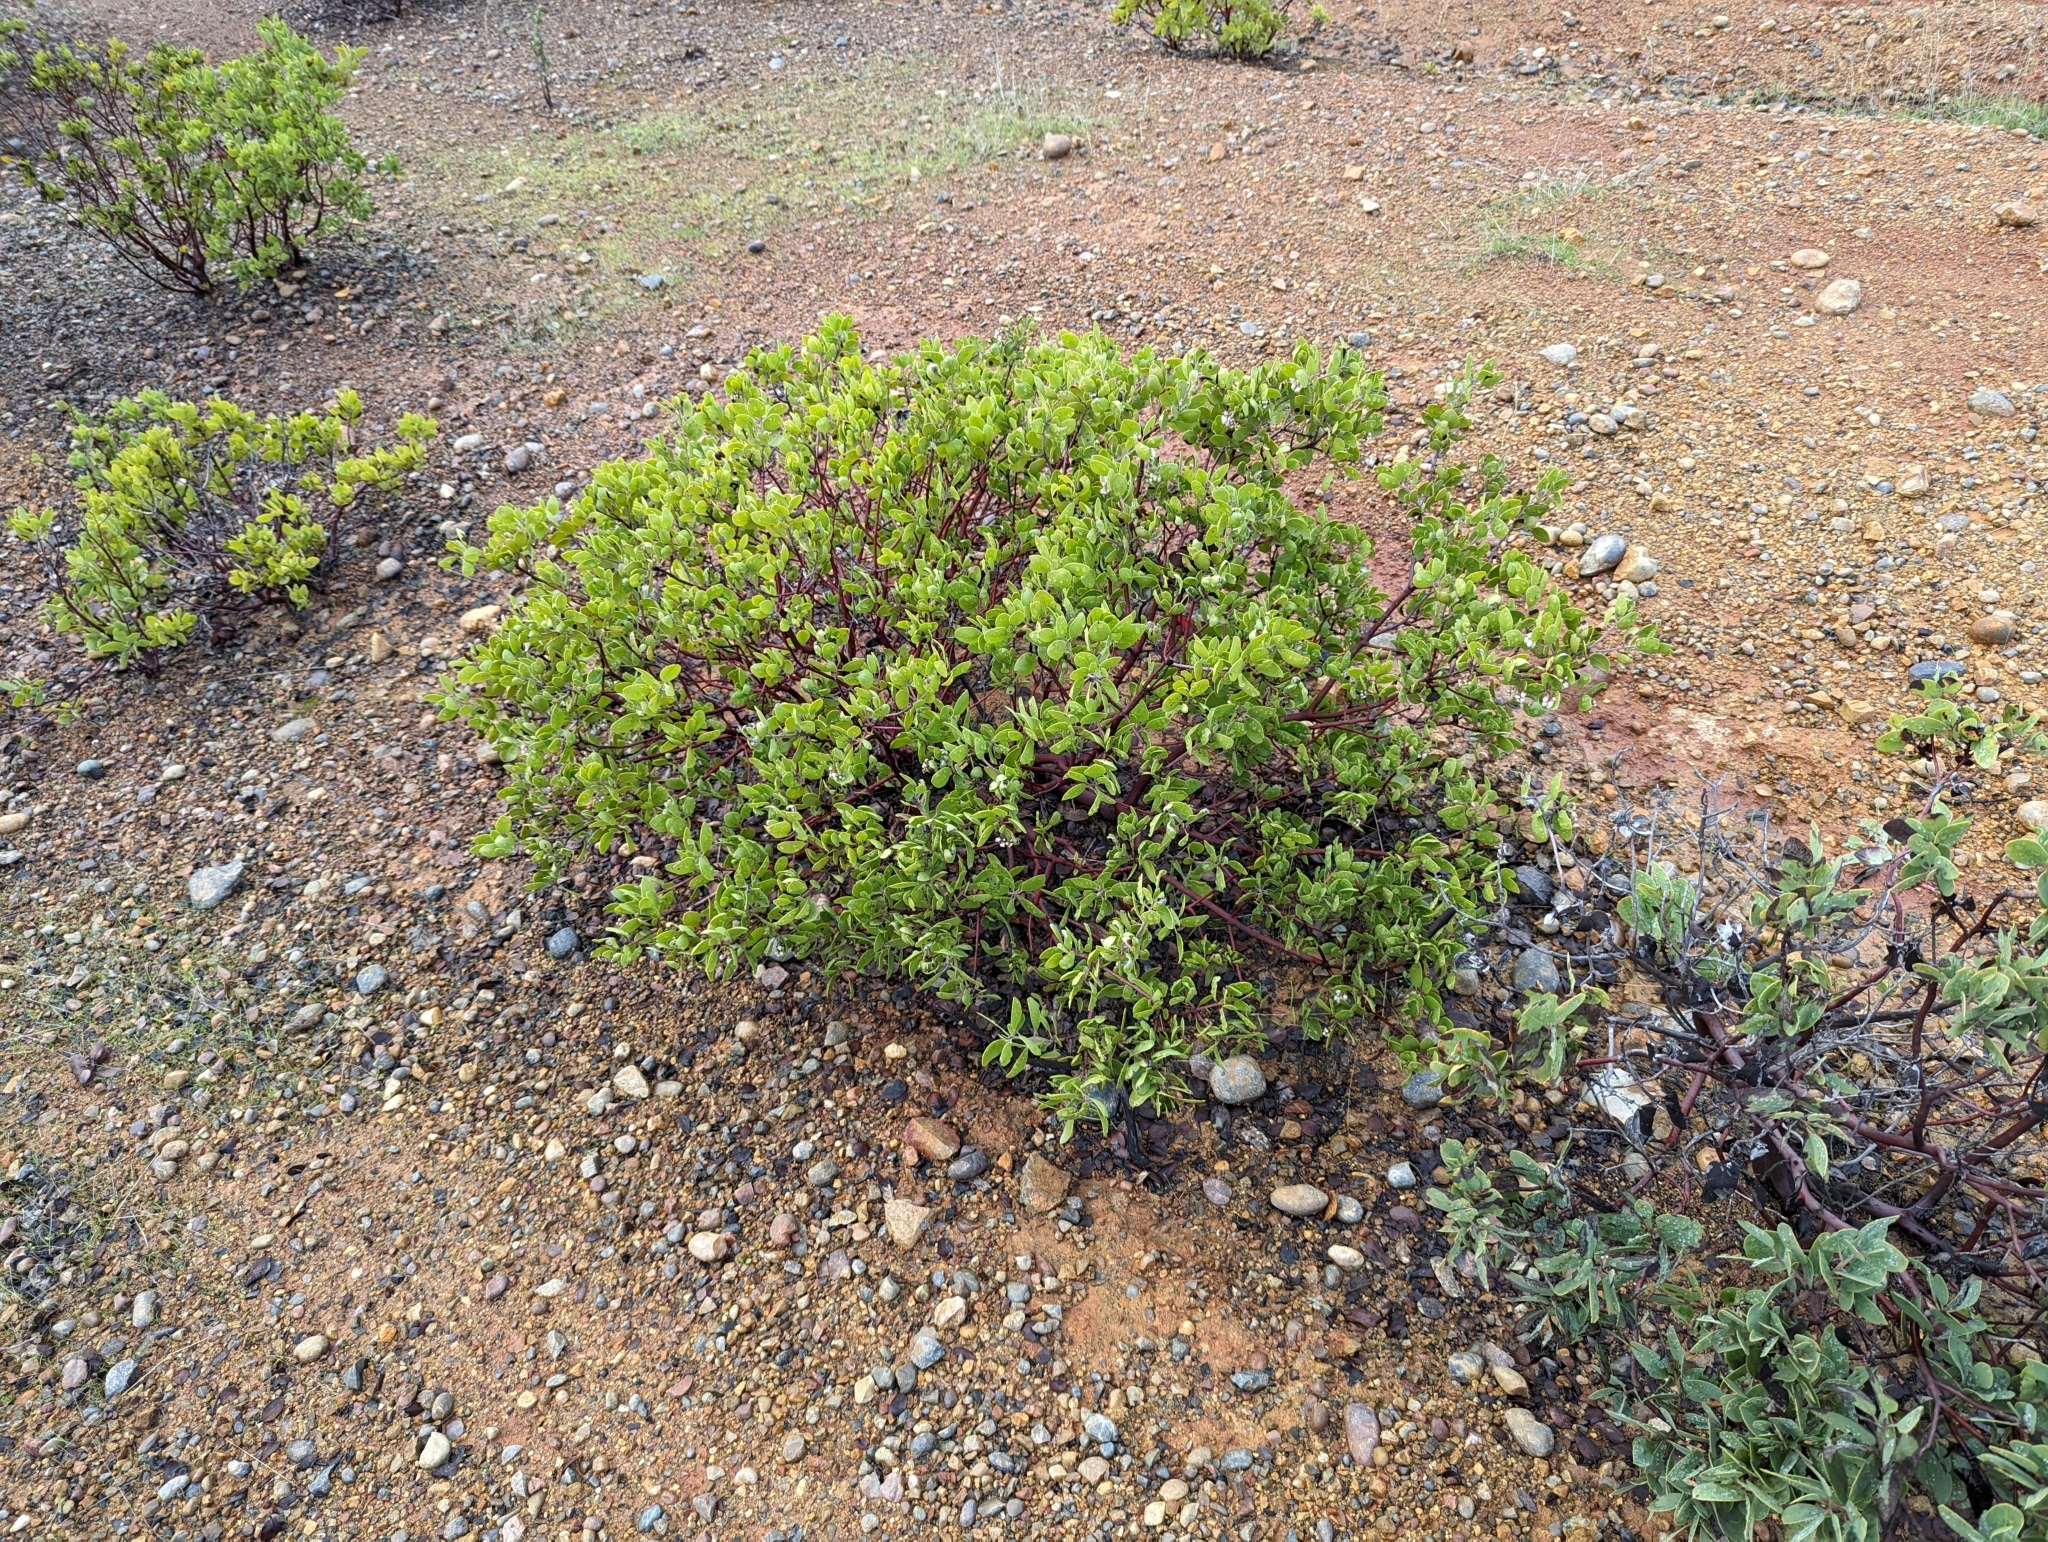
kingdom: Plantae
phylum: Tracheophyta
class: Magnoliopsida
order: Ericales
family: Ericaceae
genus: Arctostaphylos
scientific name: Arctostaphylos manzanita
